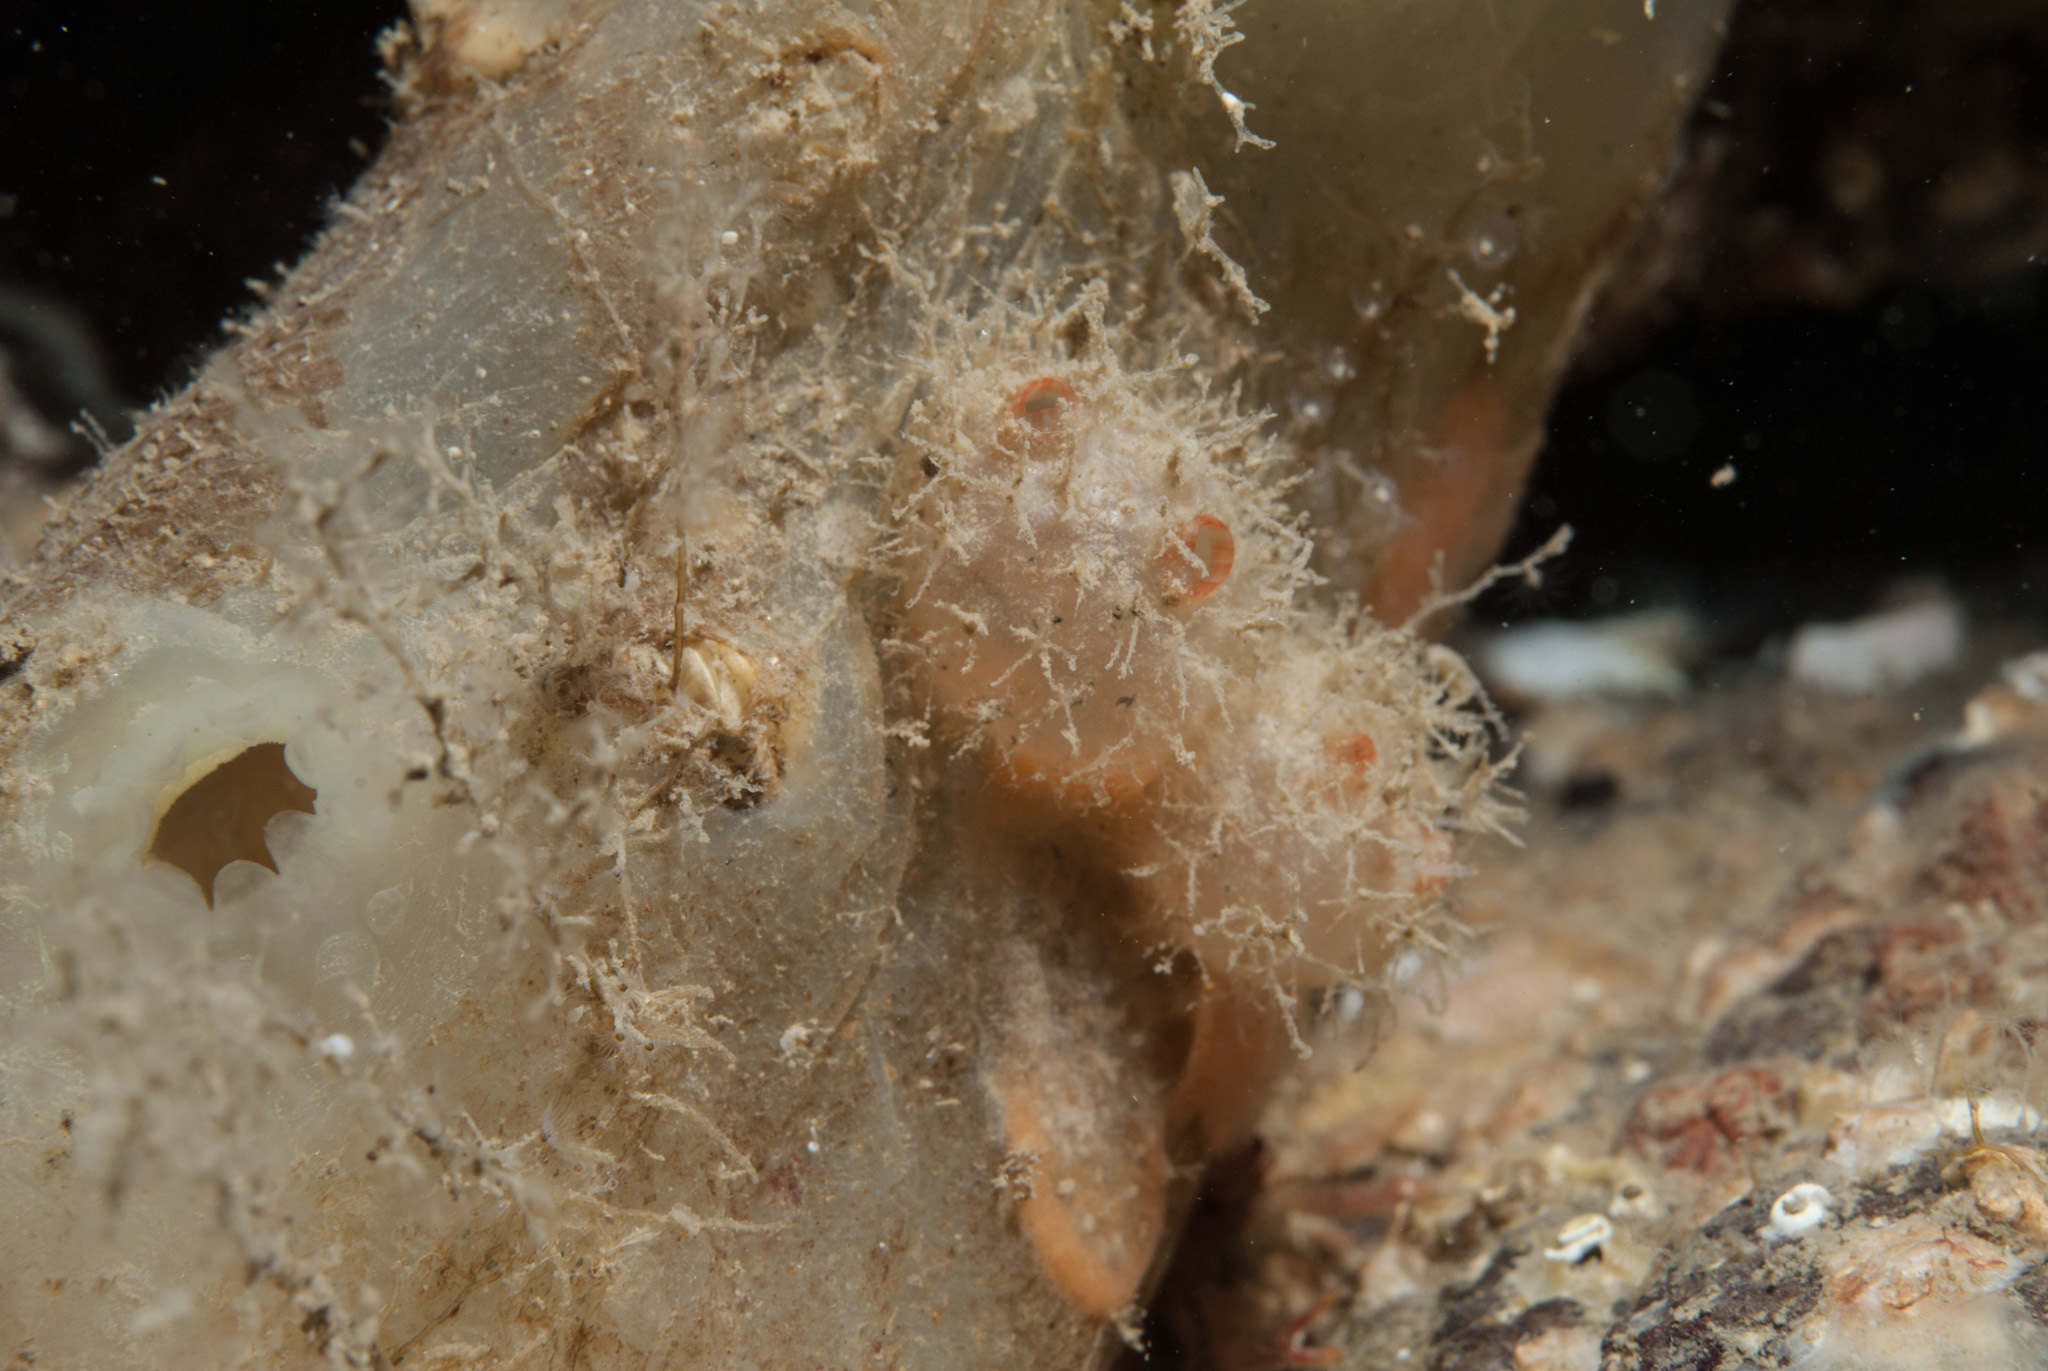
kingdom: Animalia
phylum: Chordata
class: Ascidiacea
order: Stolidobranchia
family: Pyuridae
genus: Boltenia
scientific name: Boltenia echinata
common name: Cactus sea squirt
